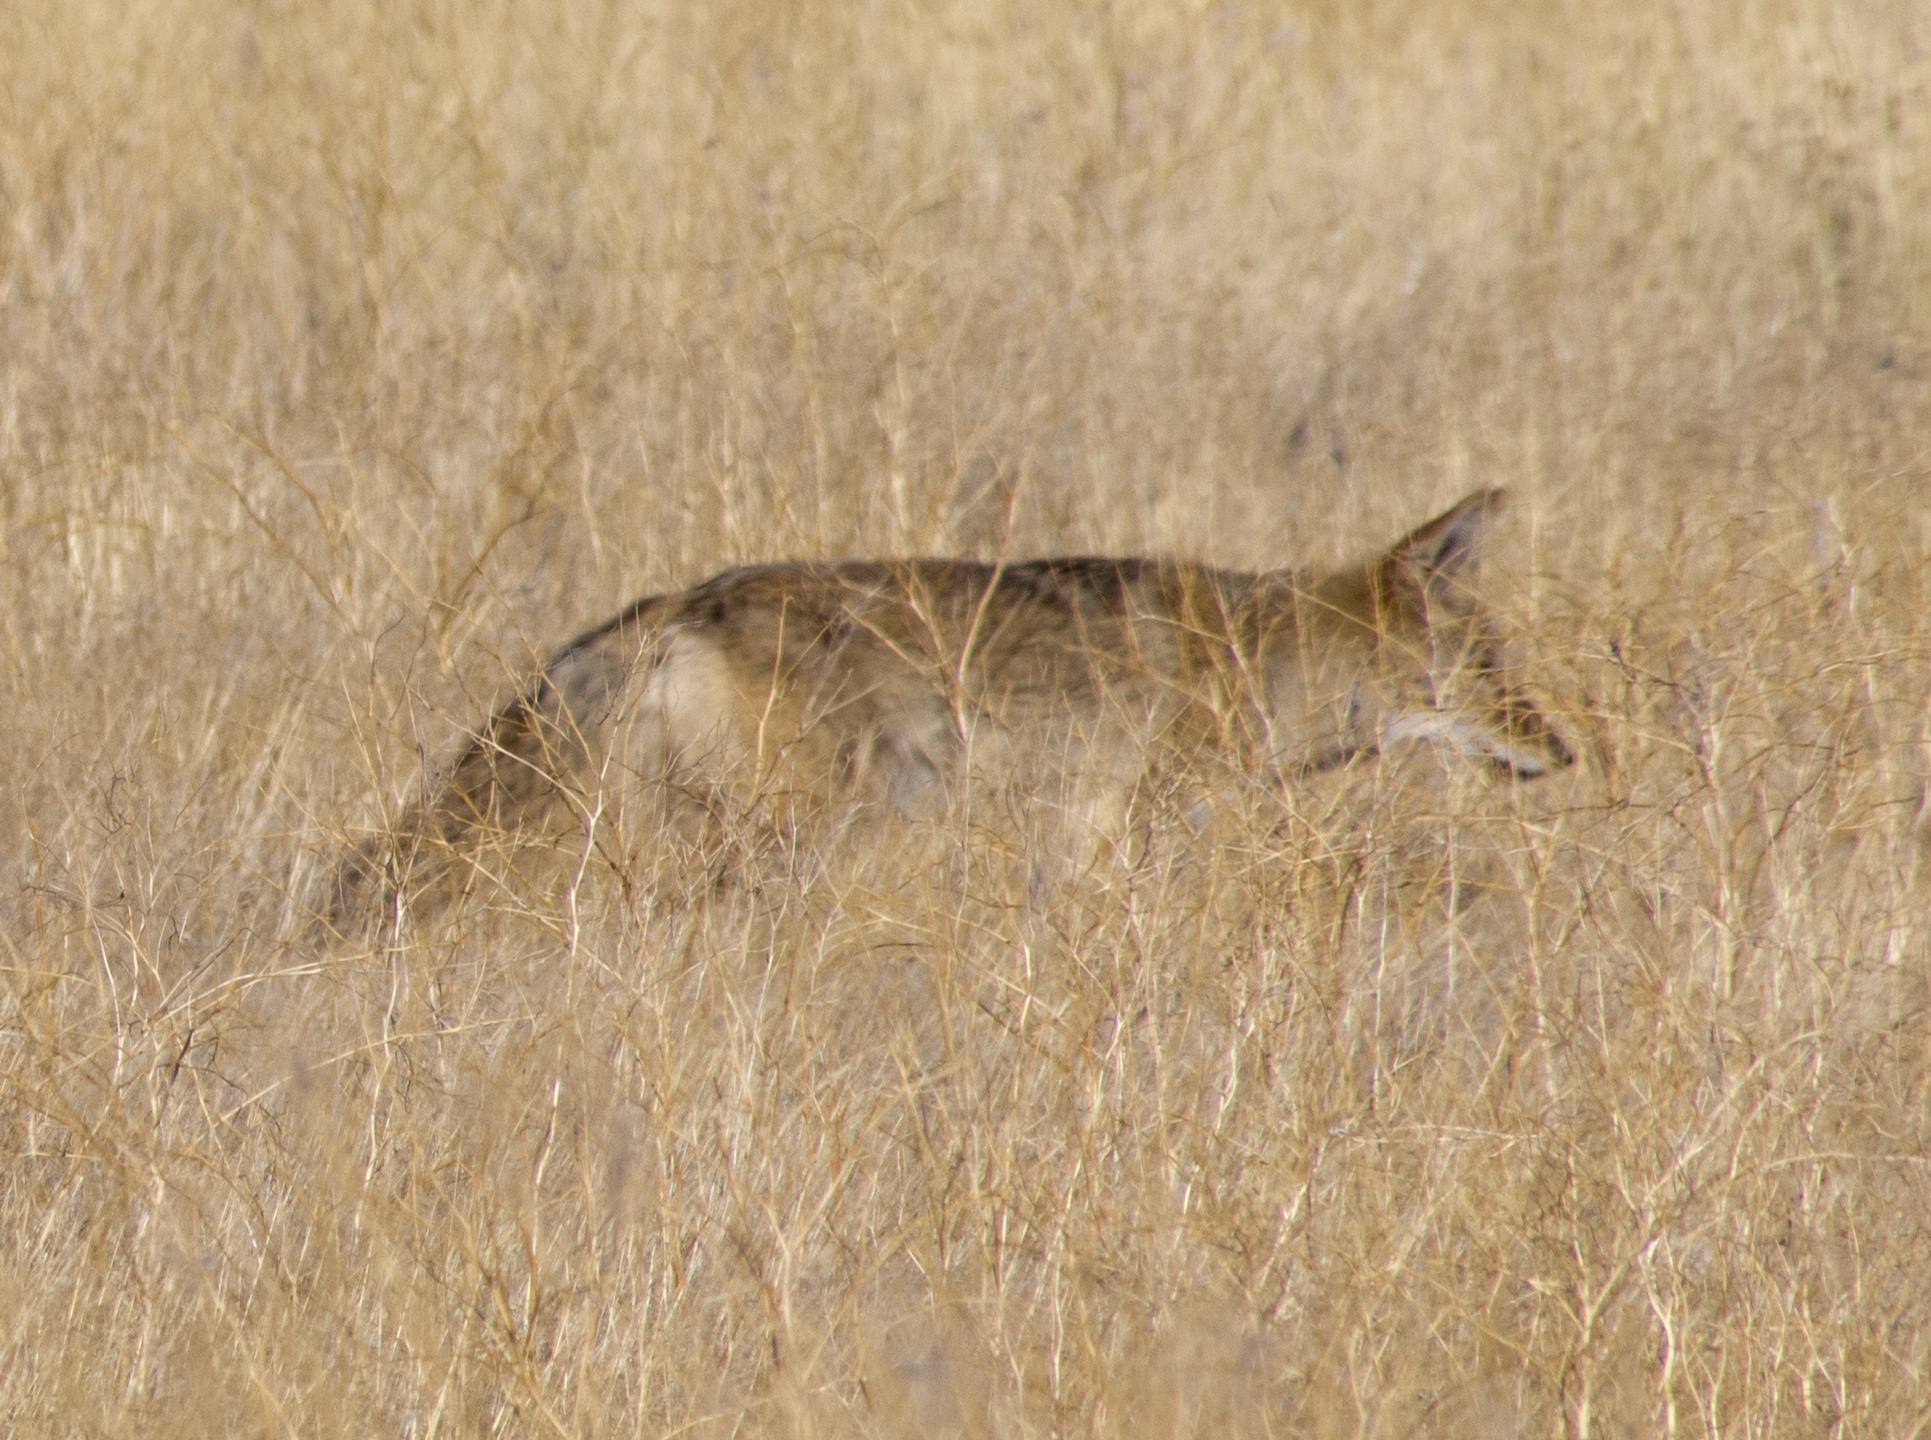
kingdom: Animalia
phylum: Chordata
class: Mammalia
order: Carnivora
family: Canidae
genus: Canis
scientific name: Canis latrans
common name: Coyote
